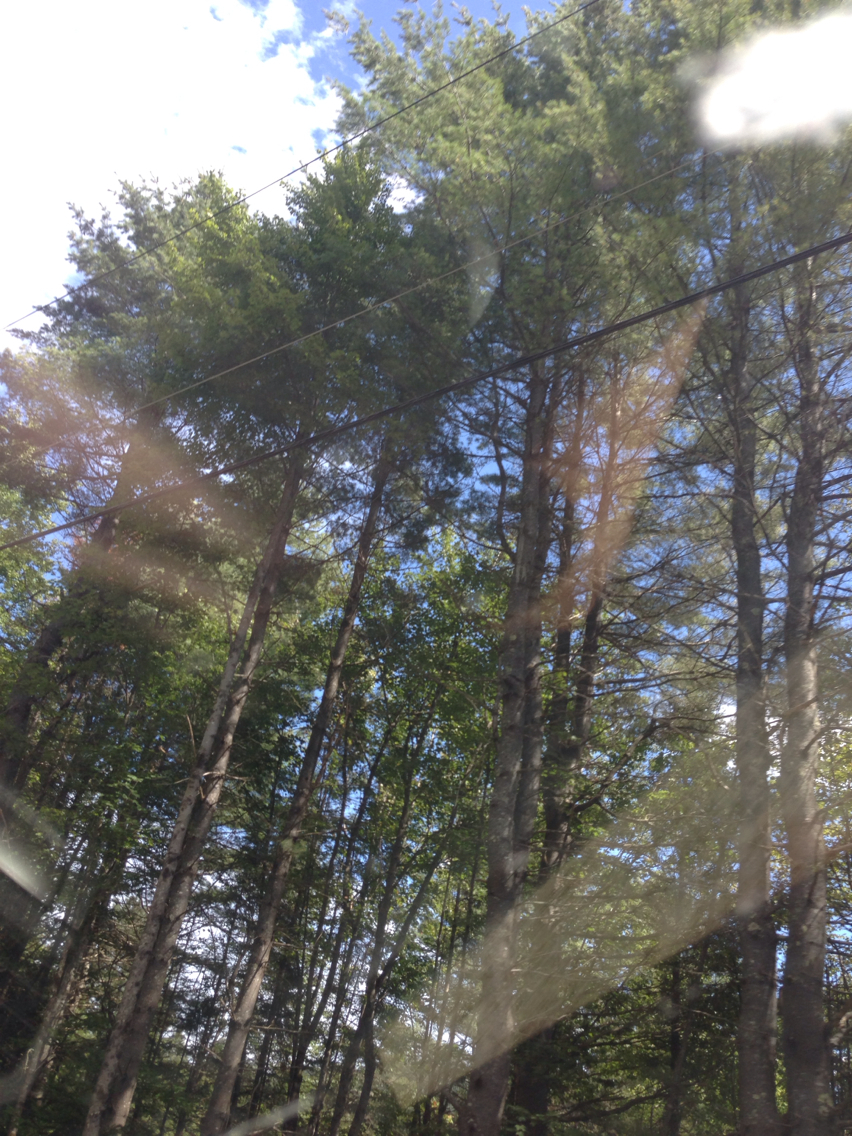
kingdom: Plantae
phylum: Tracheophyta
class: Pinopsida
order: Pinales
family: Pinaceae
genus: Pinus
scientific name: Pinus strobus
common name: Weymouth pine
